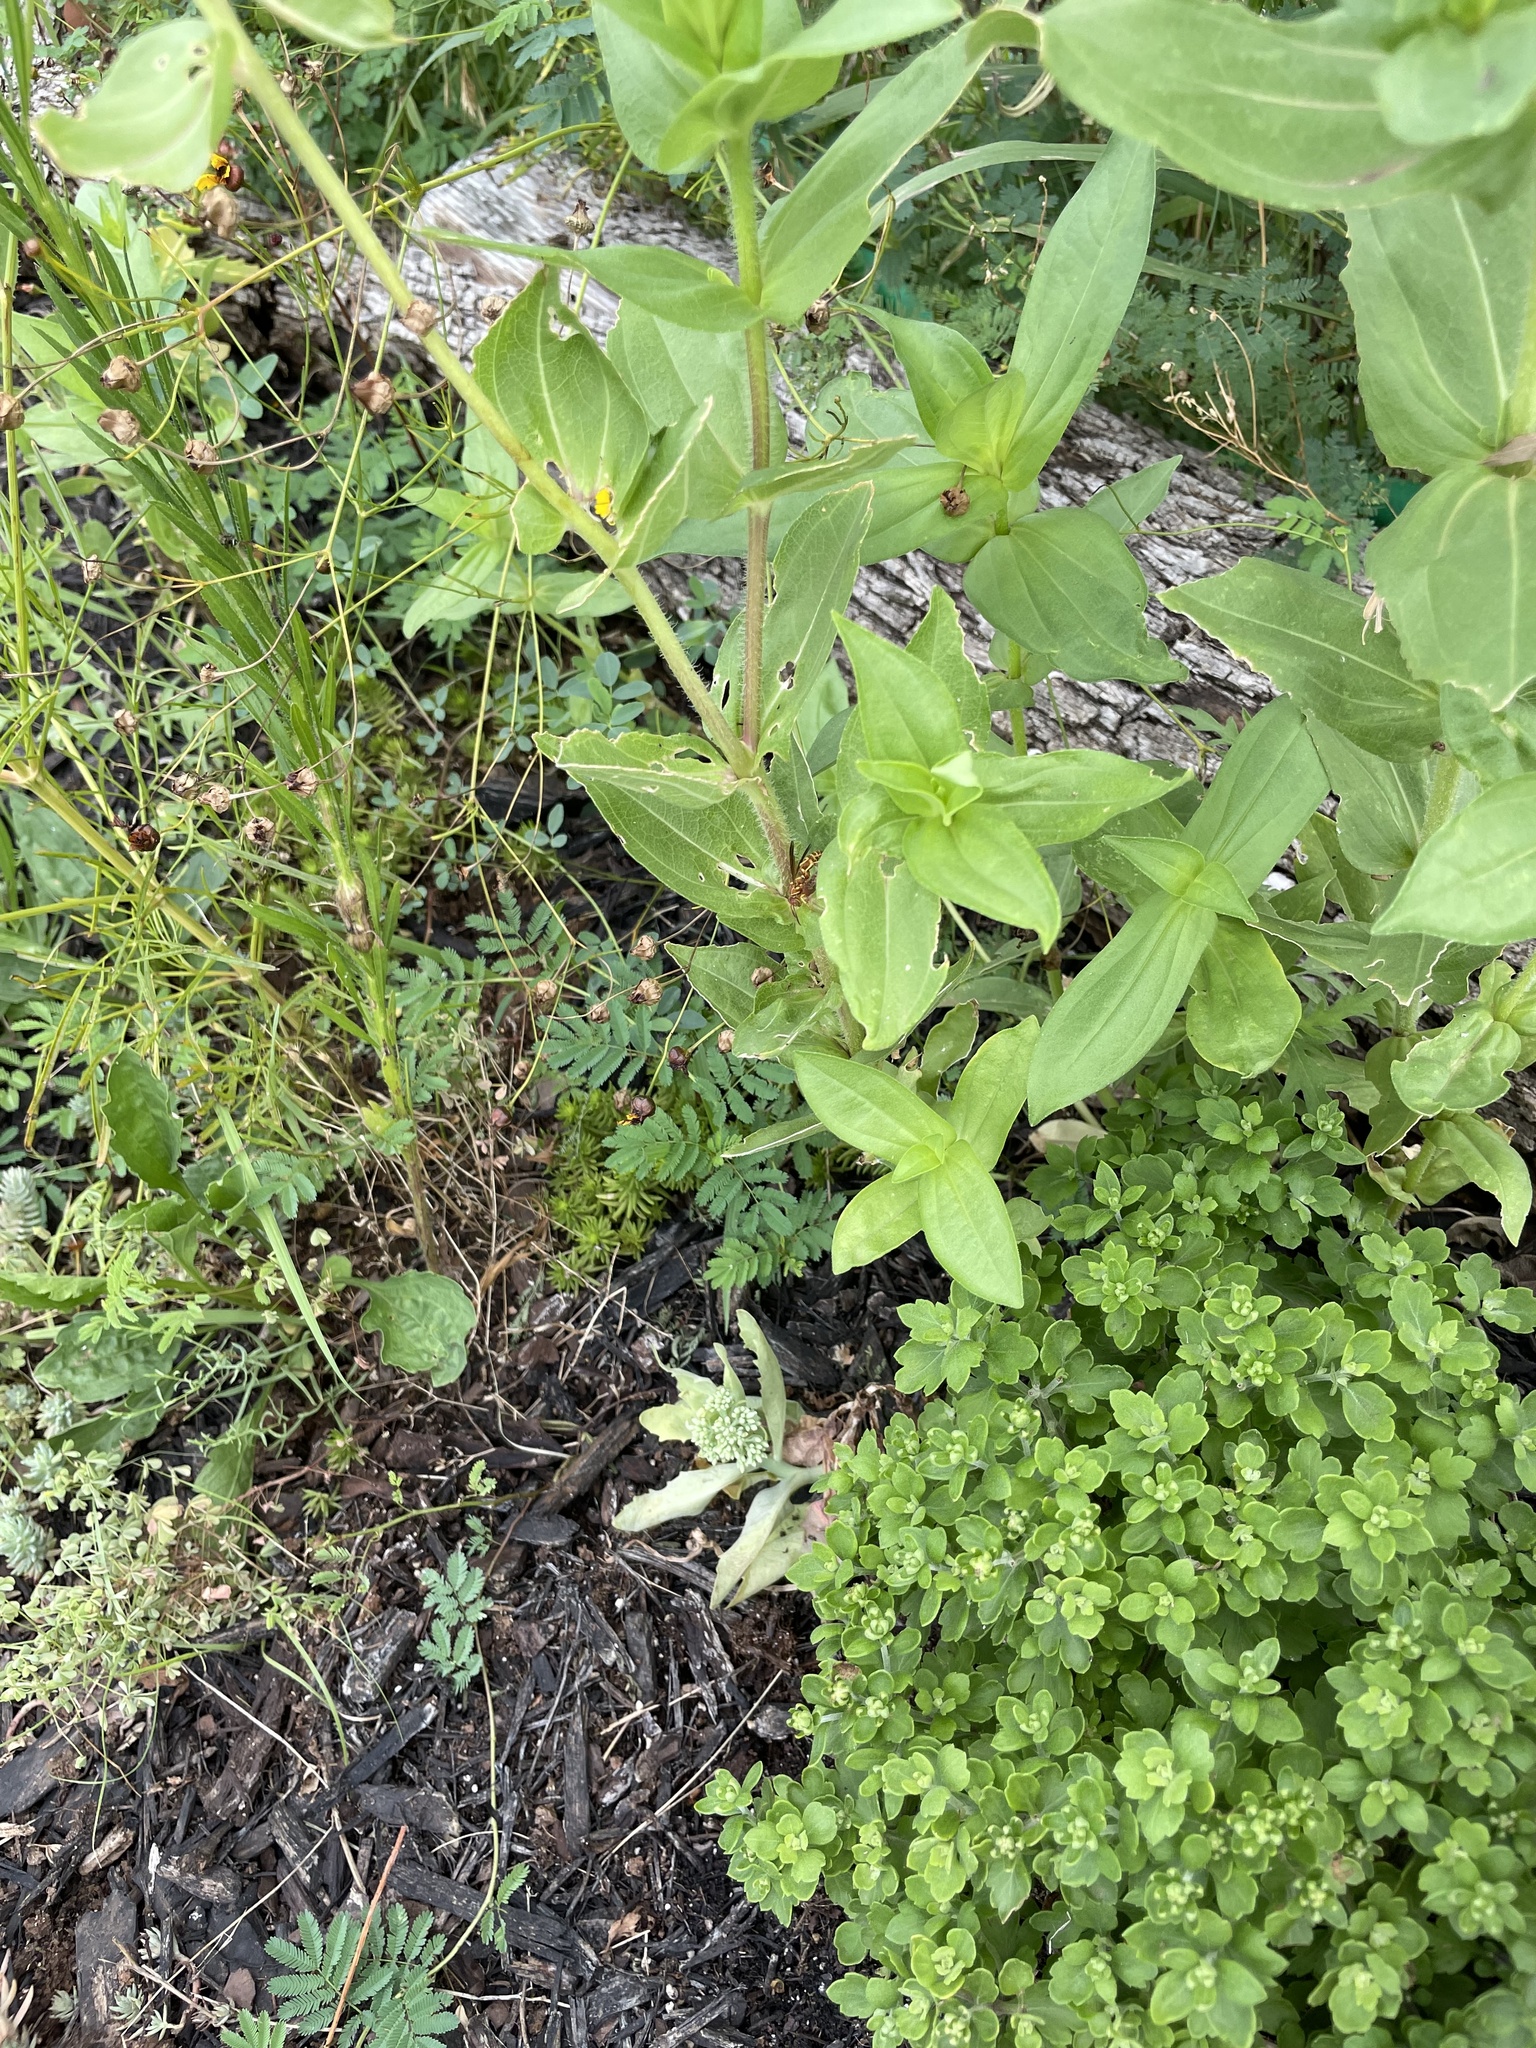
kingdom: Animalia
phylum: Arthropoda
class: Insecta
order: Hymenoptera
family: Vespidae
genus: Fuscopolistes
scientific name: Fuscopolistes
